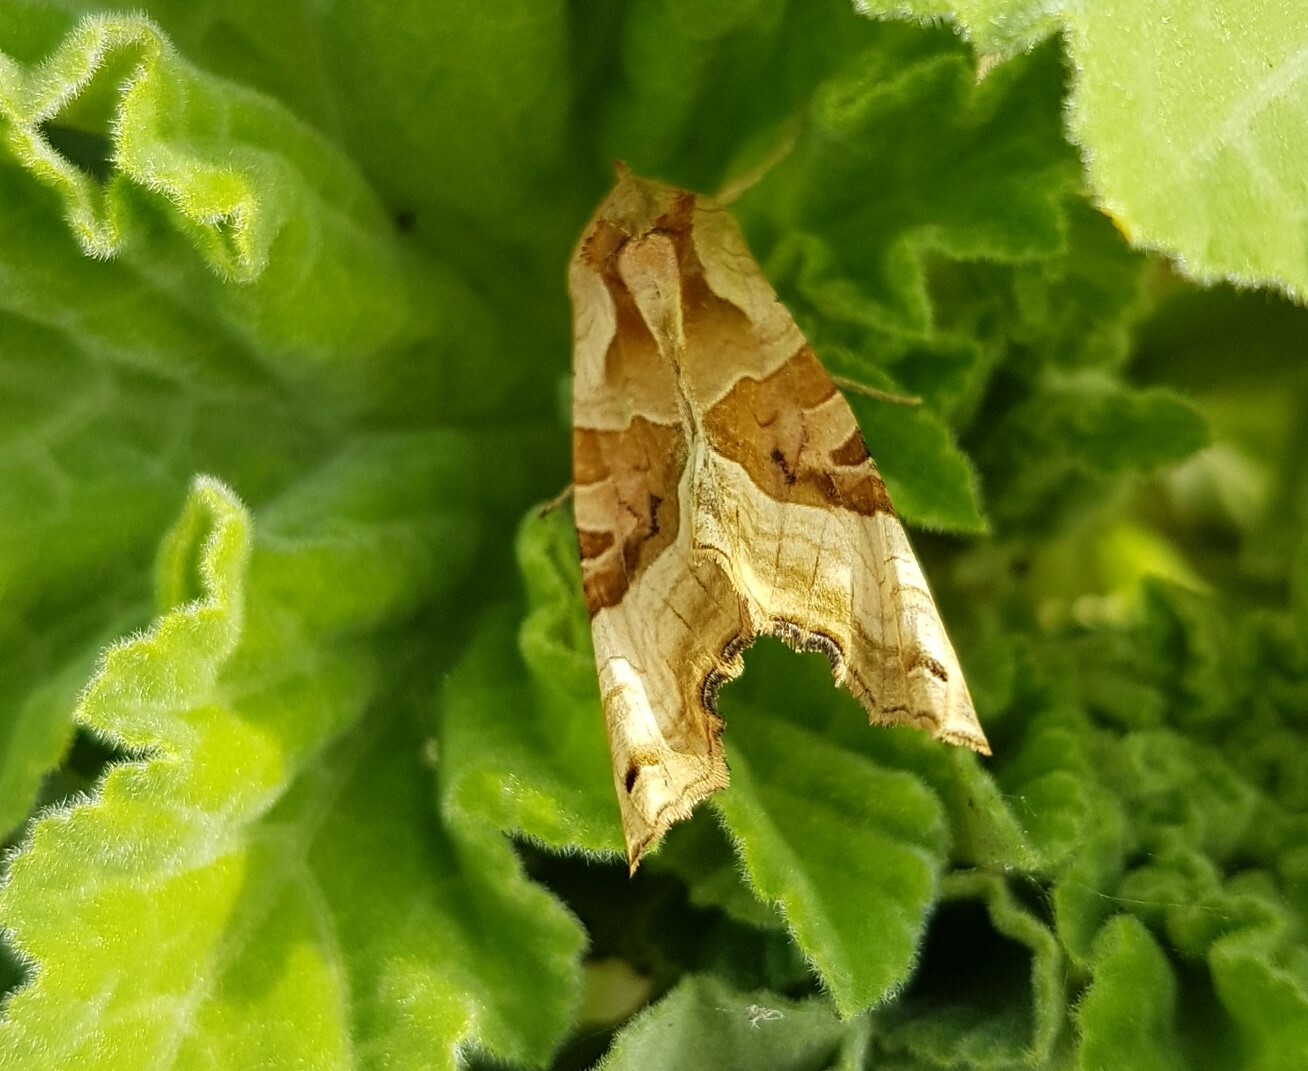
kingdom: Animalia
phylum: Arthropoda
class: Insecta
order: Lepidoptera
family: Noctuidae
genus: Phlogophora
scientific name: Phlogophora meticulosa
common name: Angle shades
